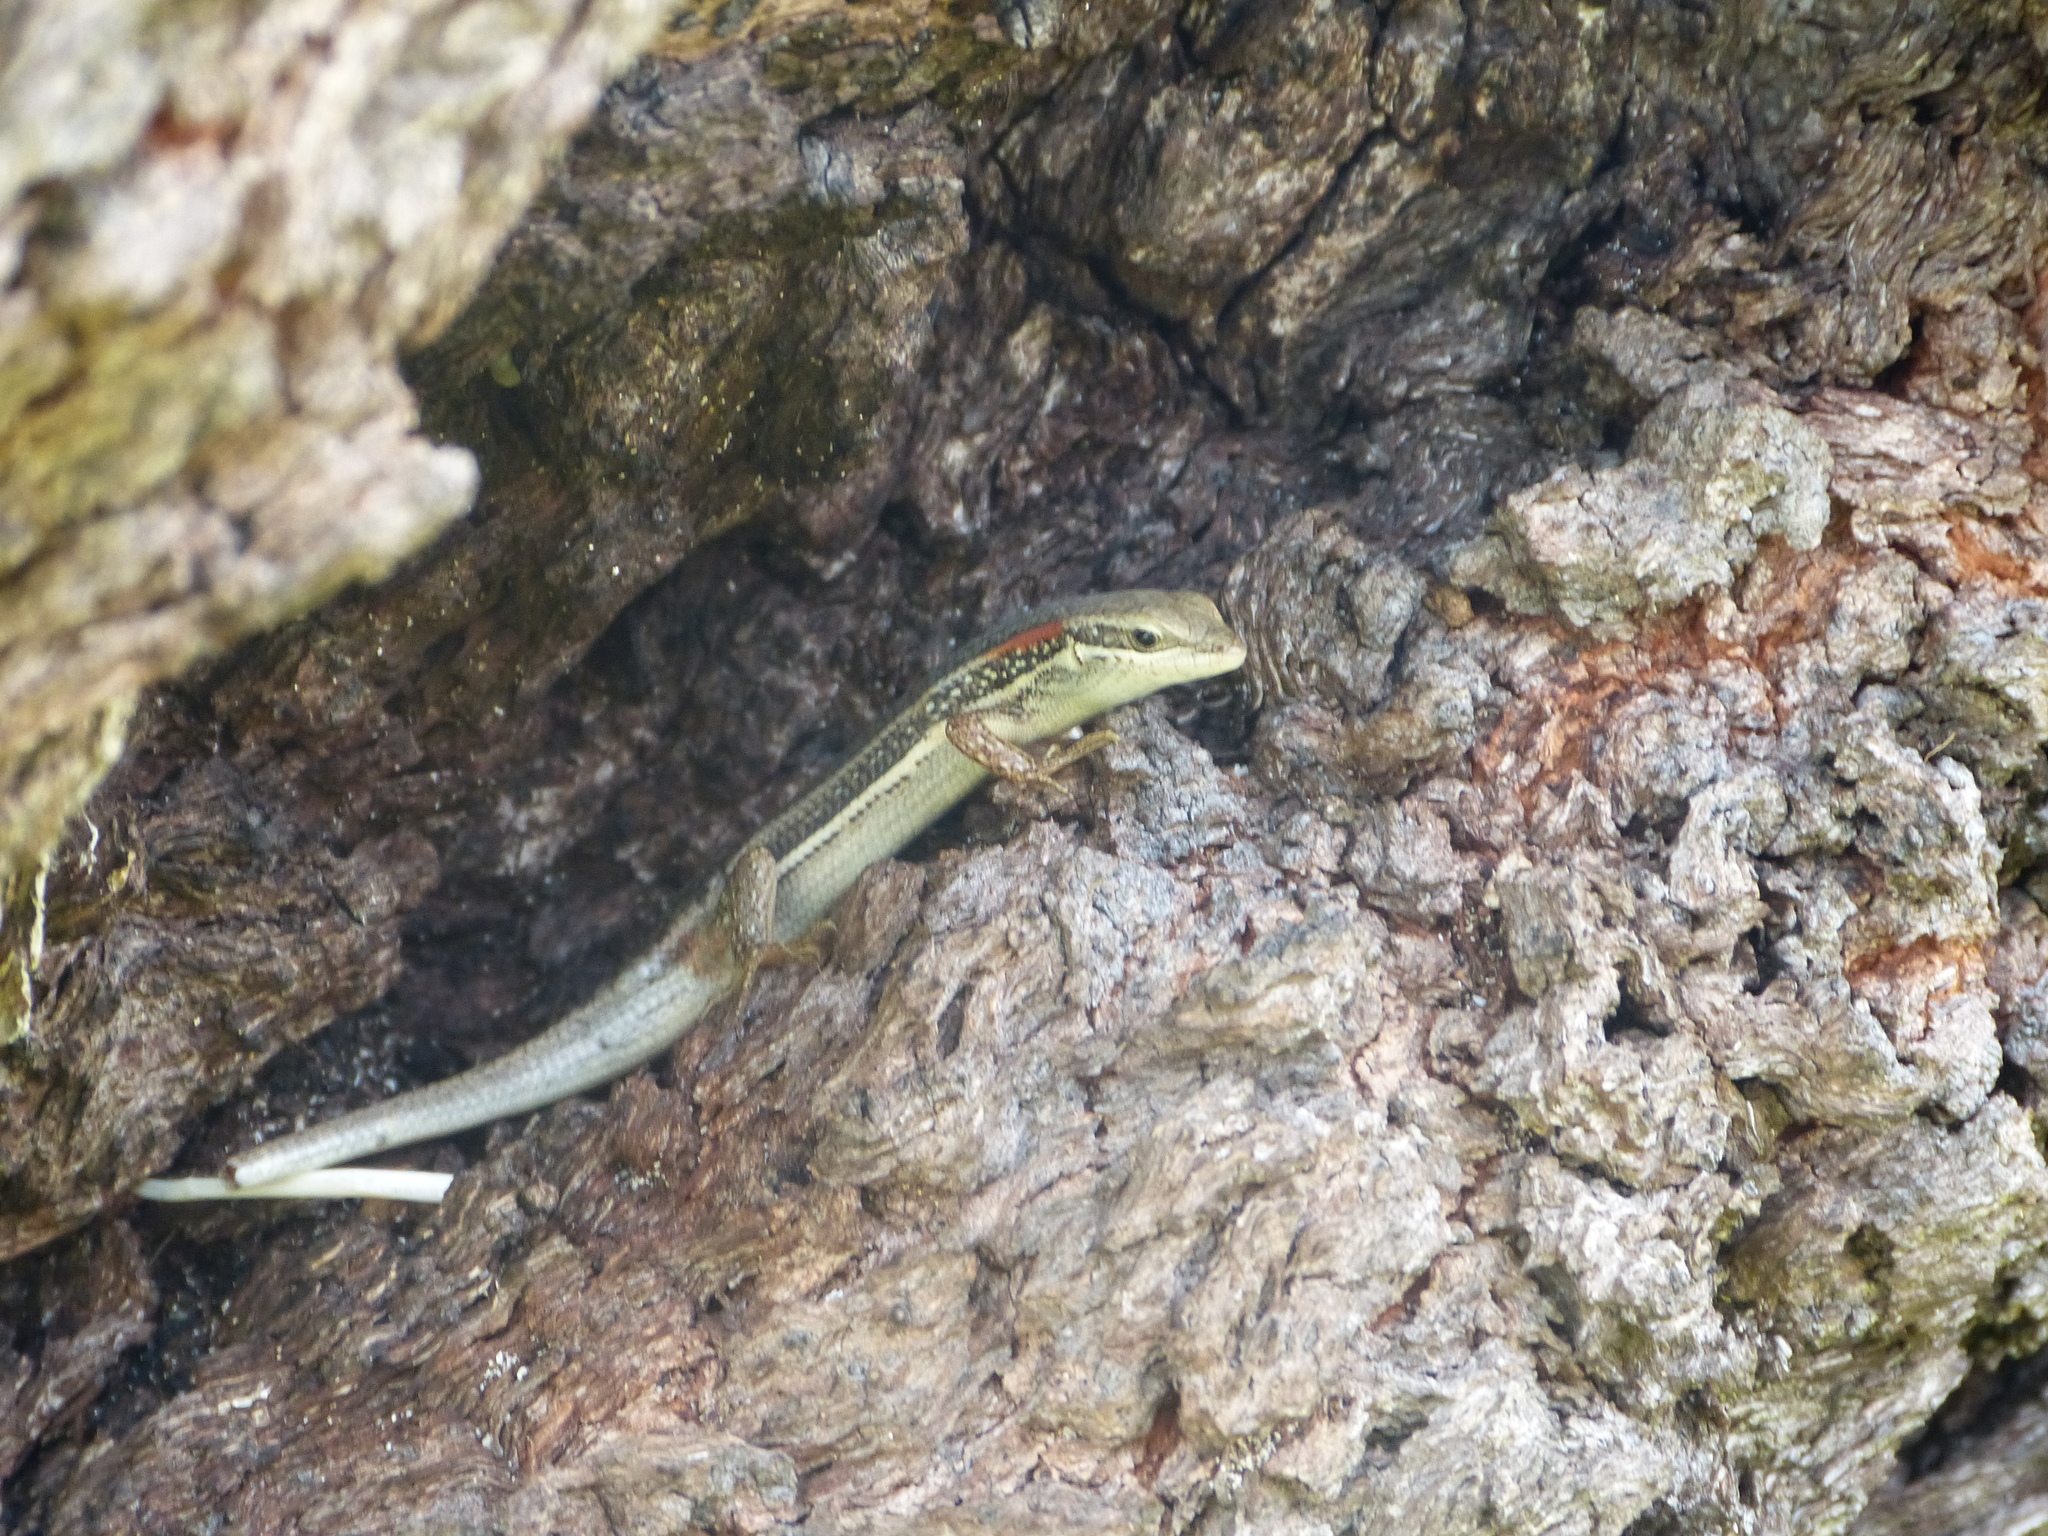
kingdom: Animalia
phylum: Chordata
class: Squamata
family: Scincidae
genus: Trachylepis
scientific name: Trachylepis elegans
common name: Elegant mabuya
